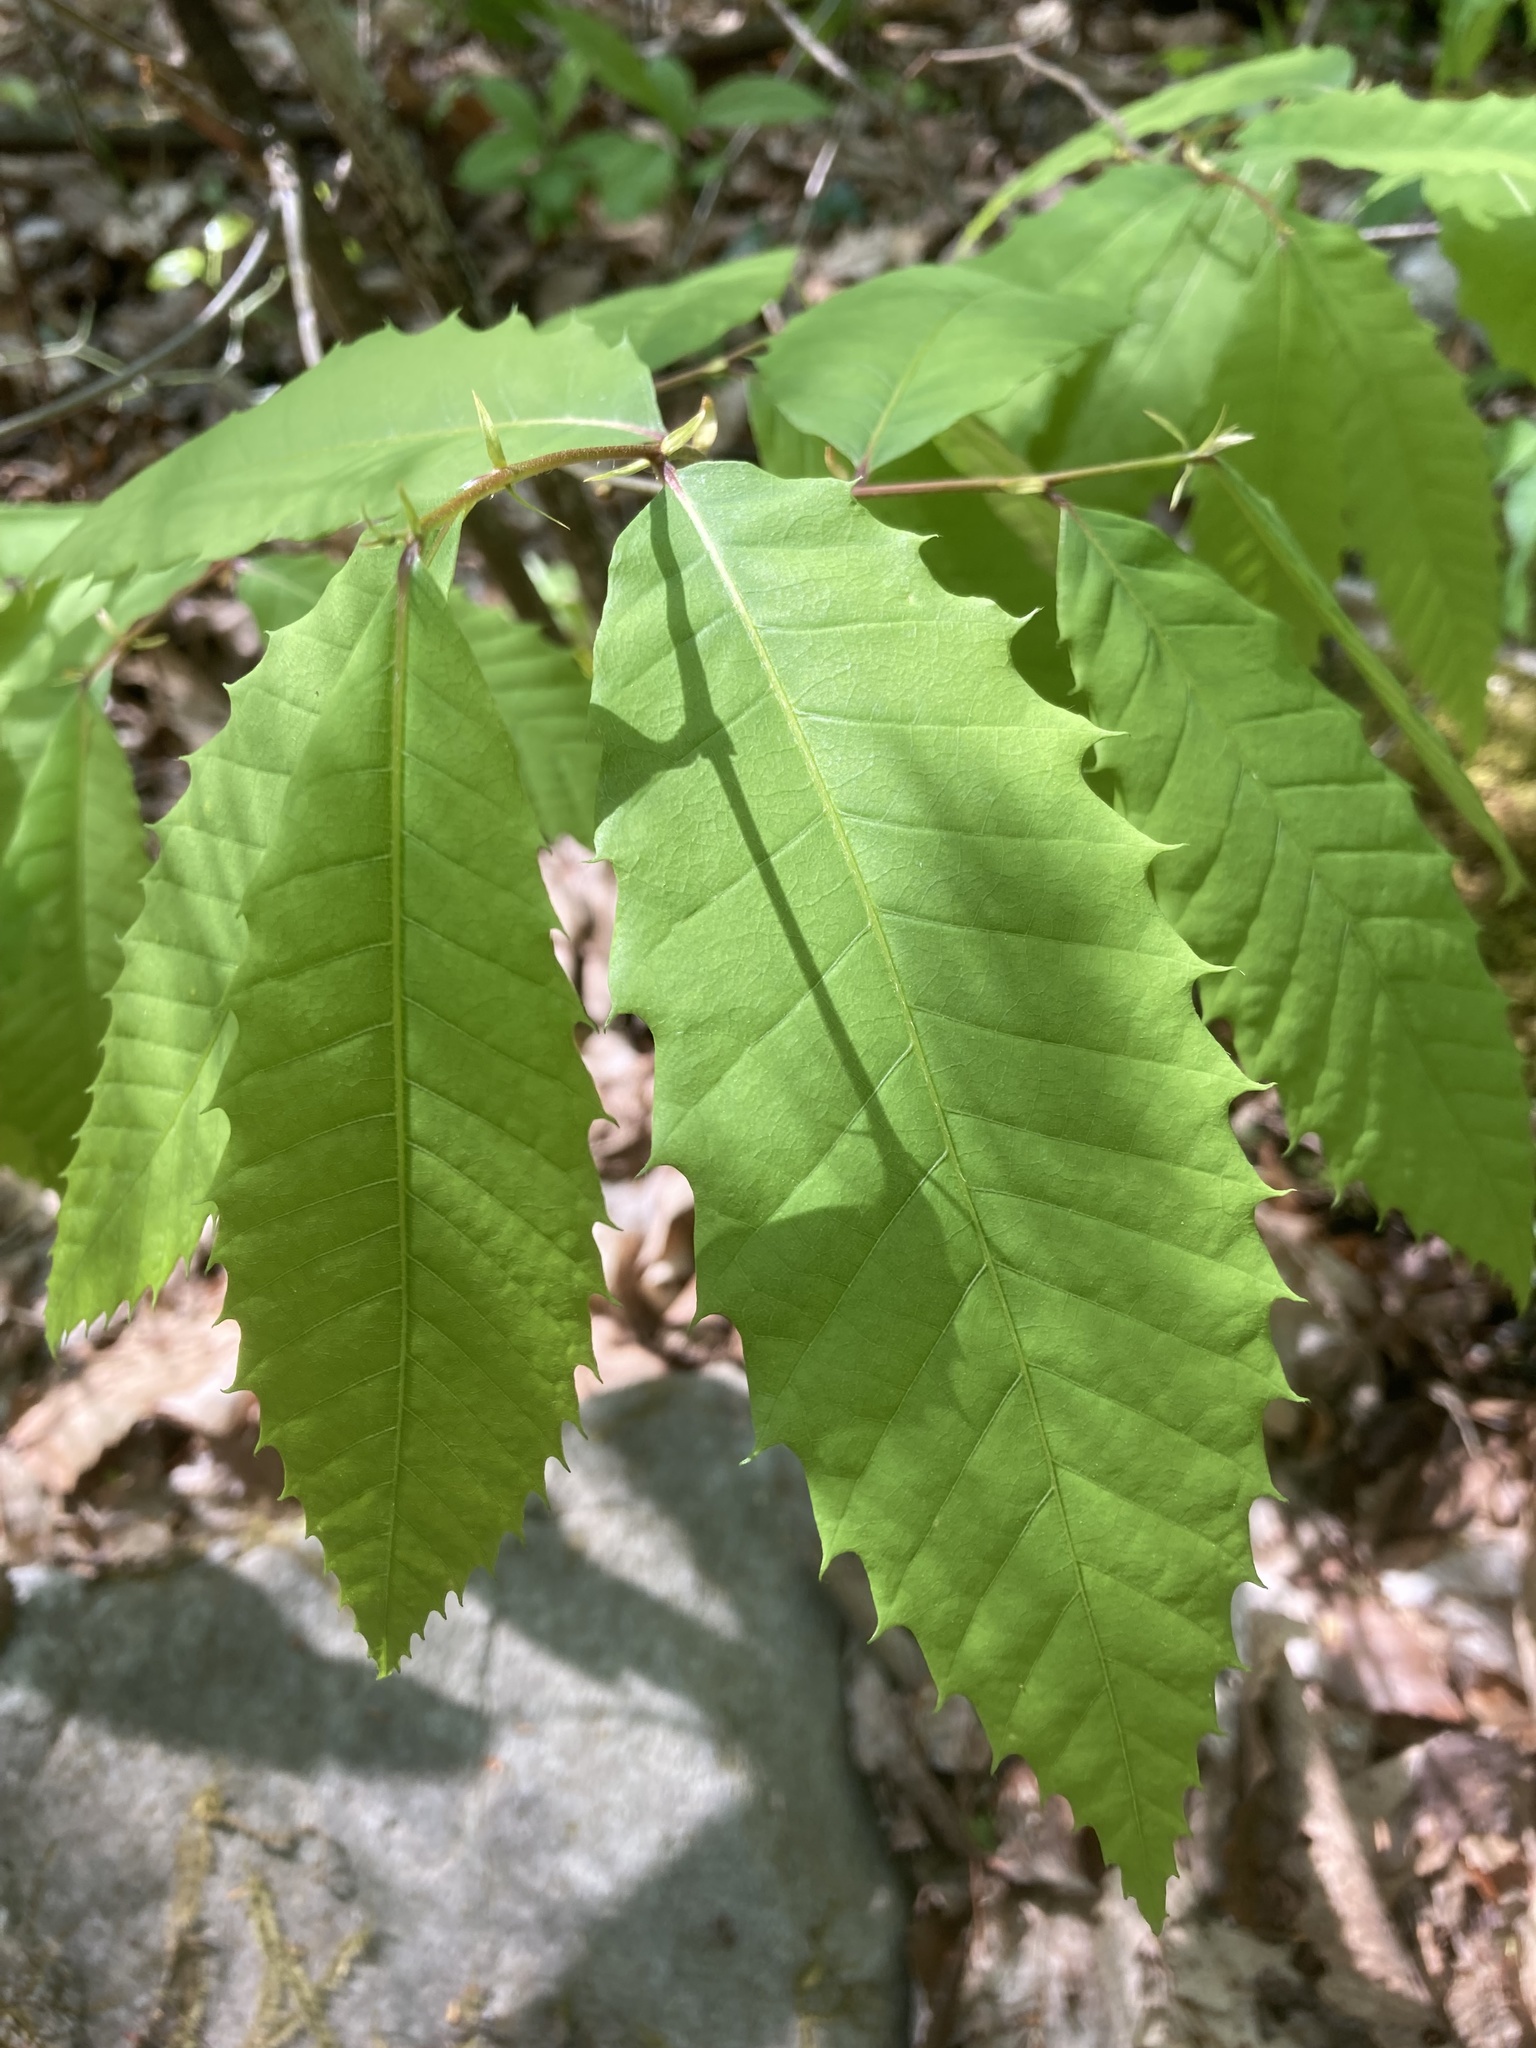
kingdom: Plantae
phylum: Tracheophyta
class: Magnoliopsida
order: Fagales
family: Fagaceae
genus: Castanea
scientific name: Castanea dentata
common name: American chestnut
